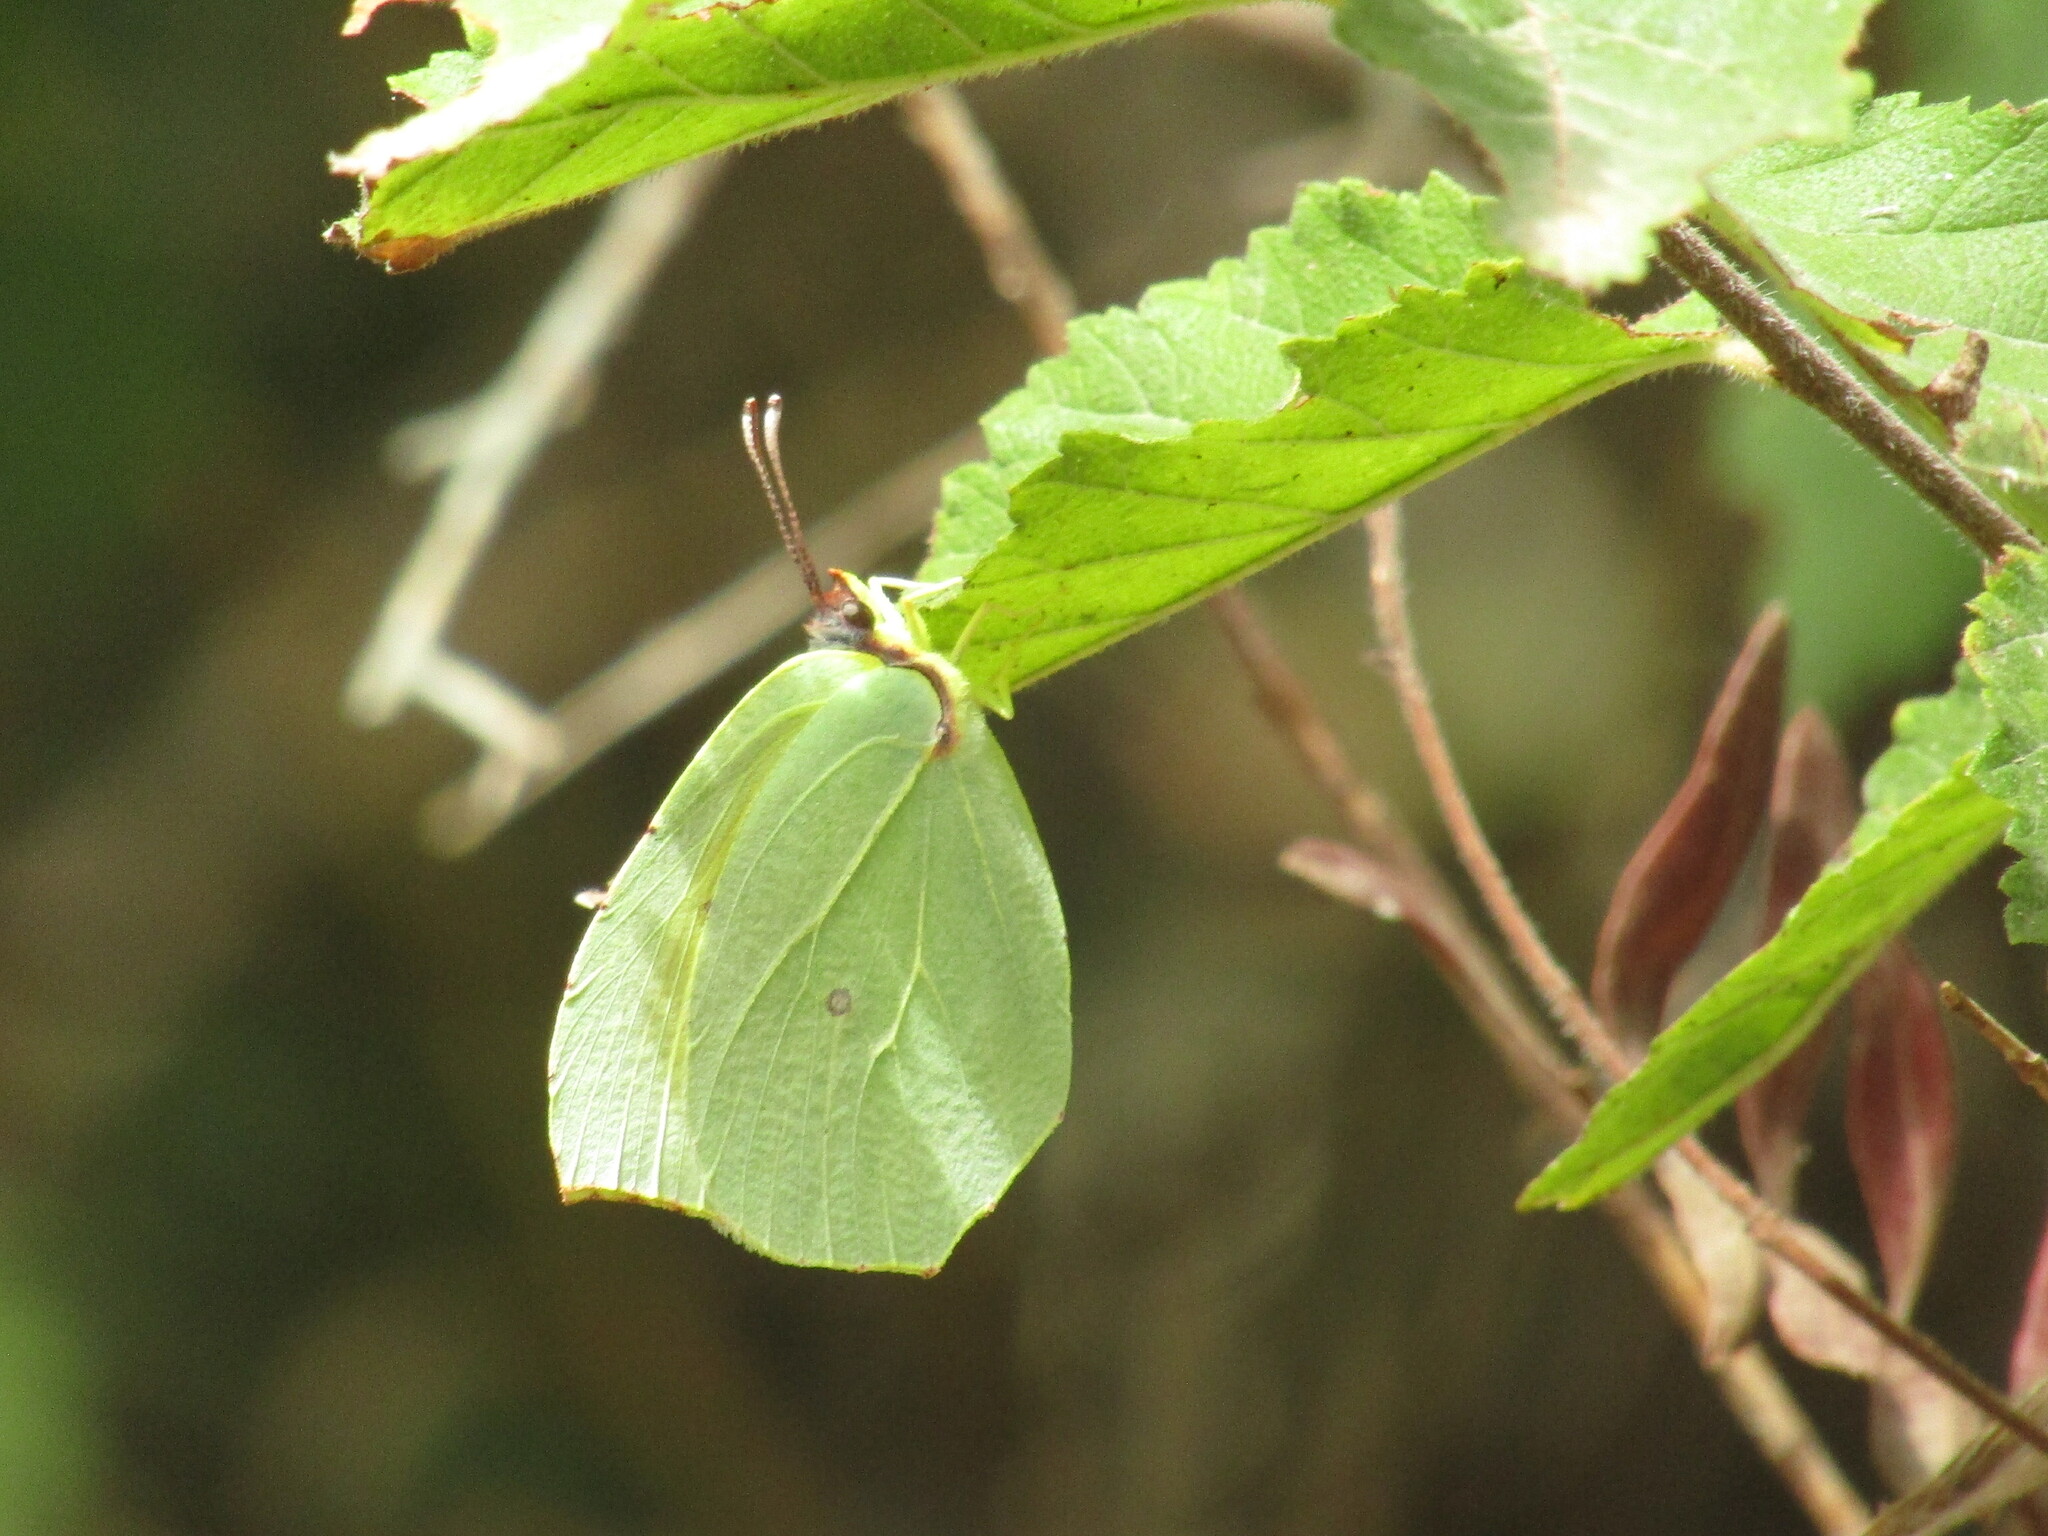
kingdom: Animalia
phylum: Arthropoda
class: Insecta
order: Lepidoptera
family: Pieridae
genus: Gonepteryx
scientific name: Gonepteryx cleopatra
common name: Cleopatra
